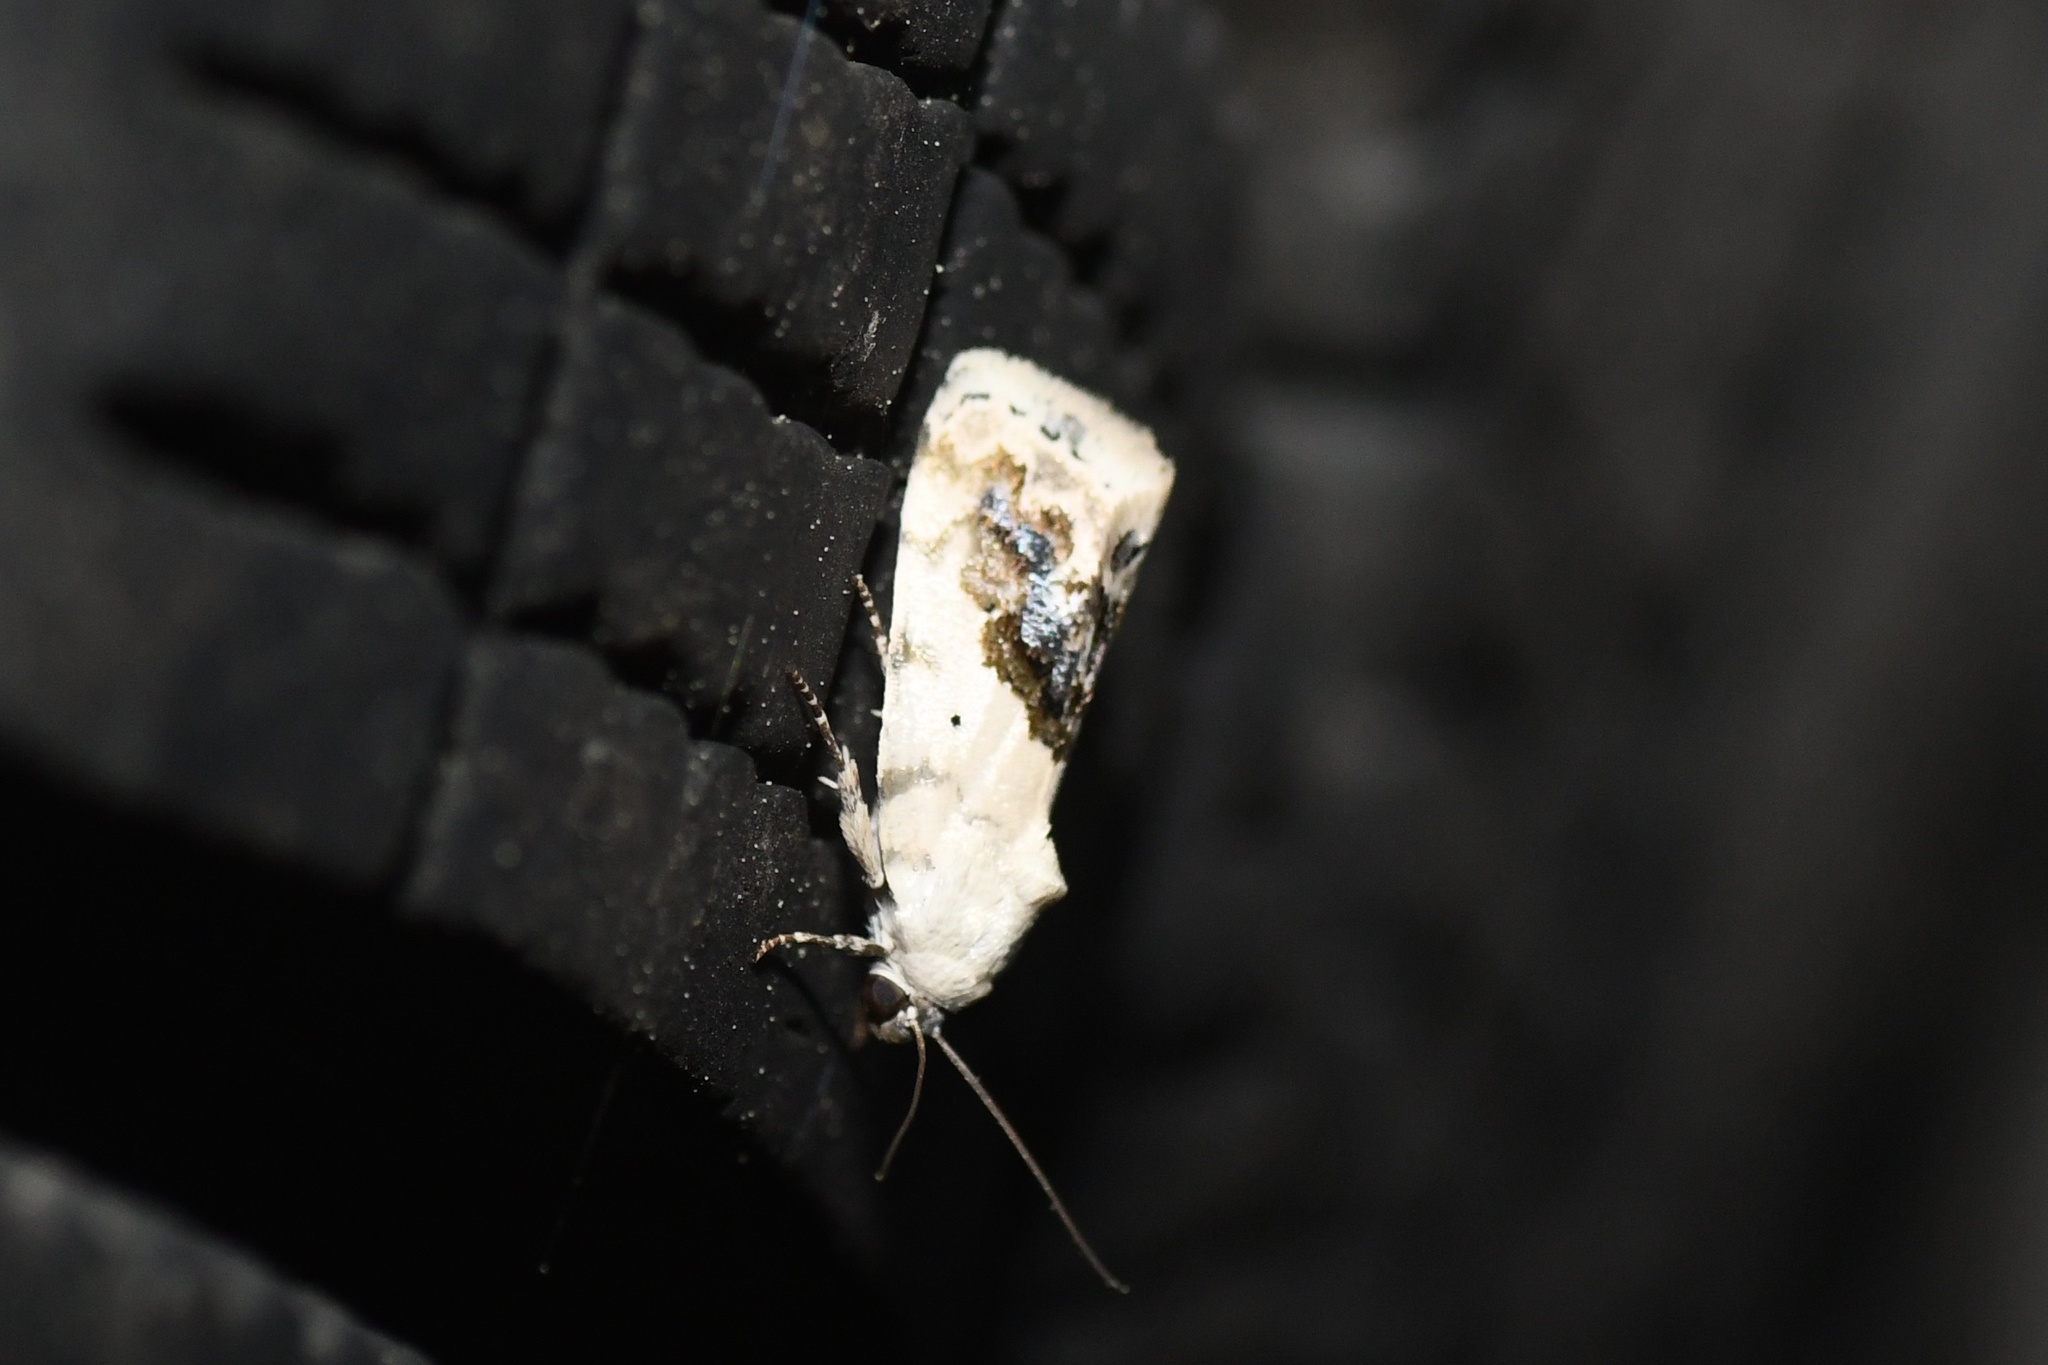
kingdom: Animalia
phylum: Arthropoda
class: Insecta
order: Lepidoptera
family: Noctuidae
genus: Acontia
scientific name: Acontia erastrioides
